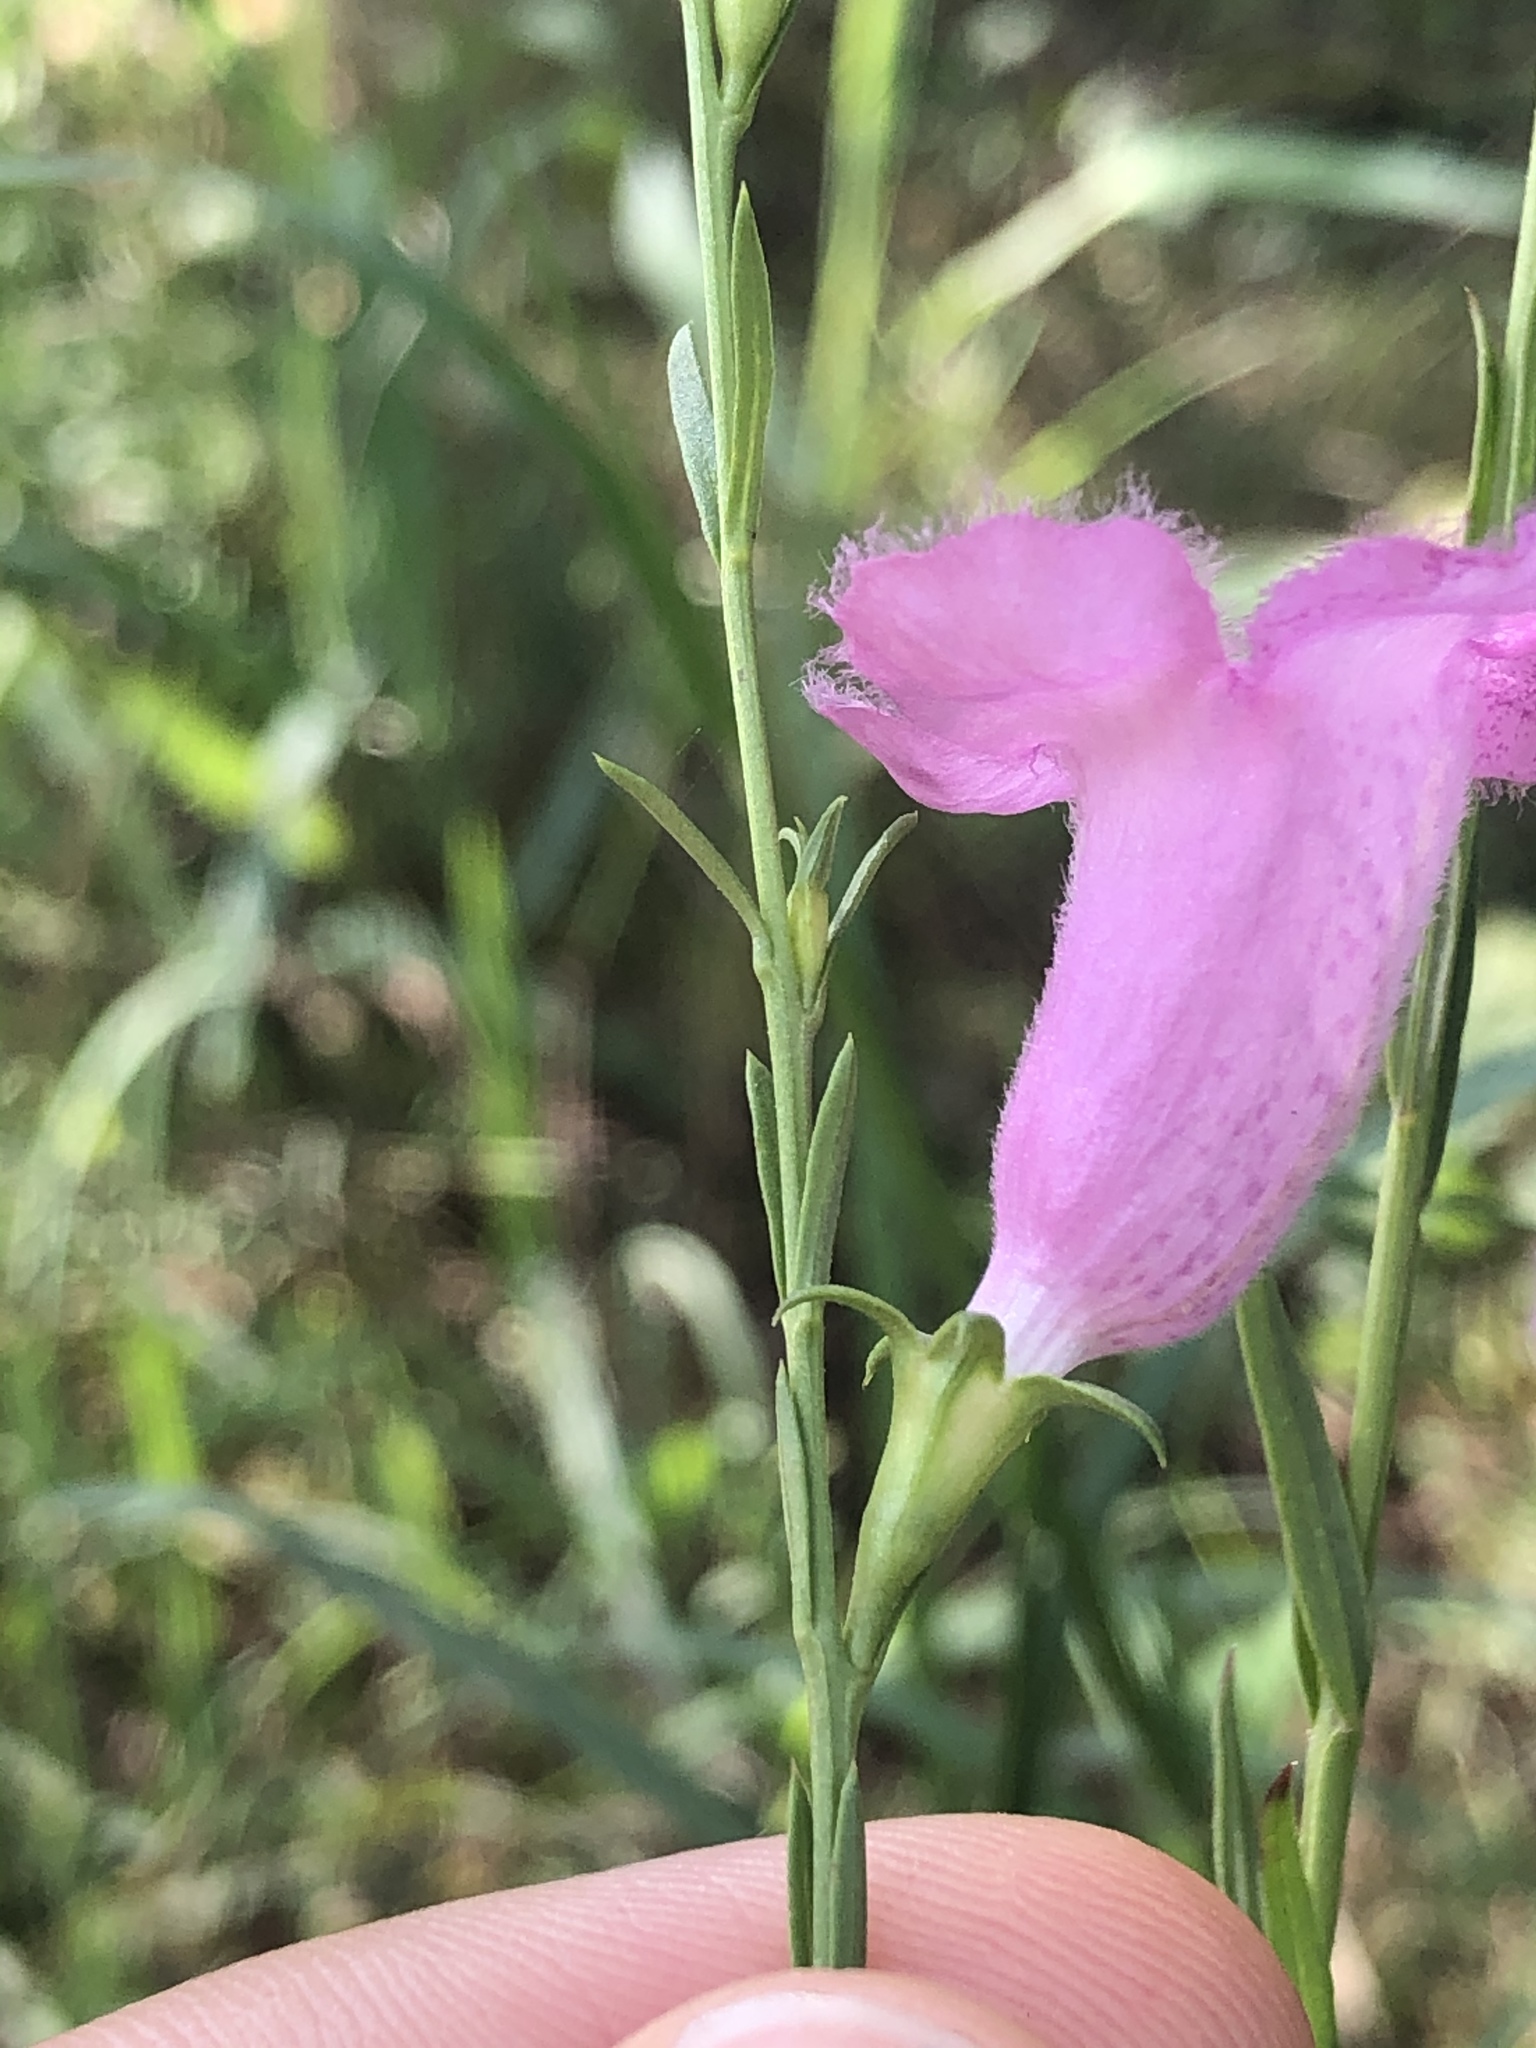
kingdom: Plantae
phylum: Tracheophyta
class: Magnoliopsida
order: Lamiales
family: Orobanchaceae
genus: Agalinis
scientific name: Agalinis heterophylla
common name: Prairie agalinis
